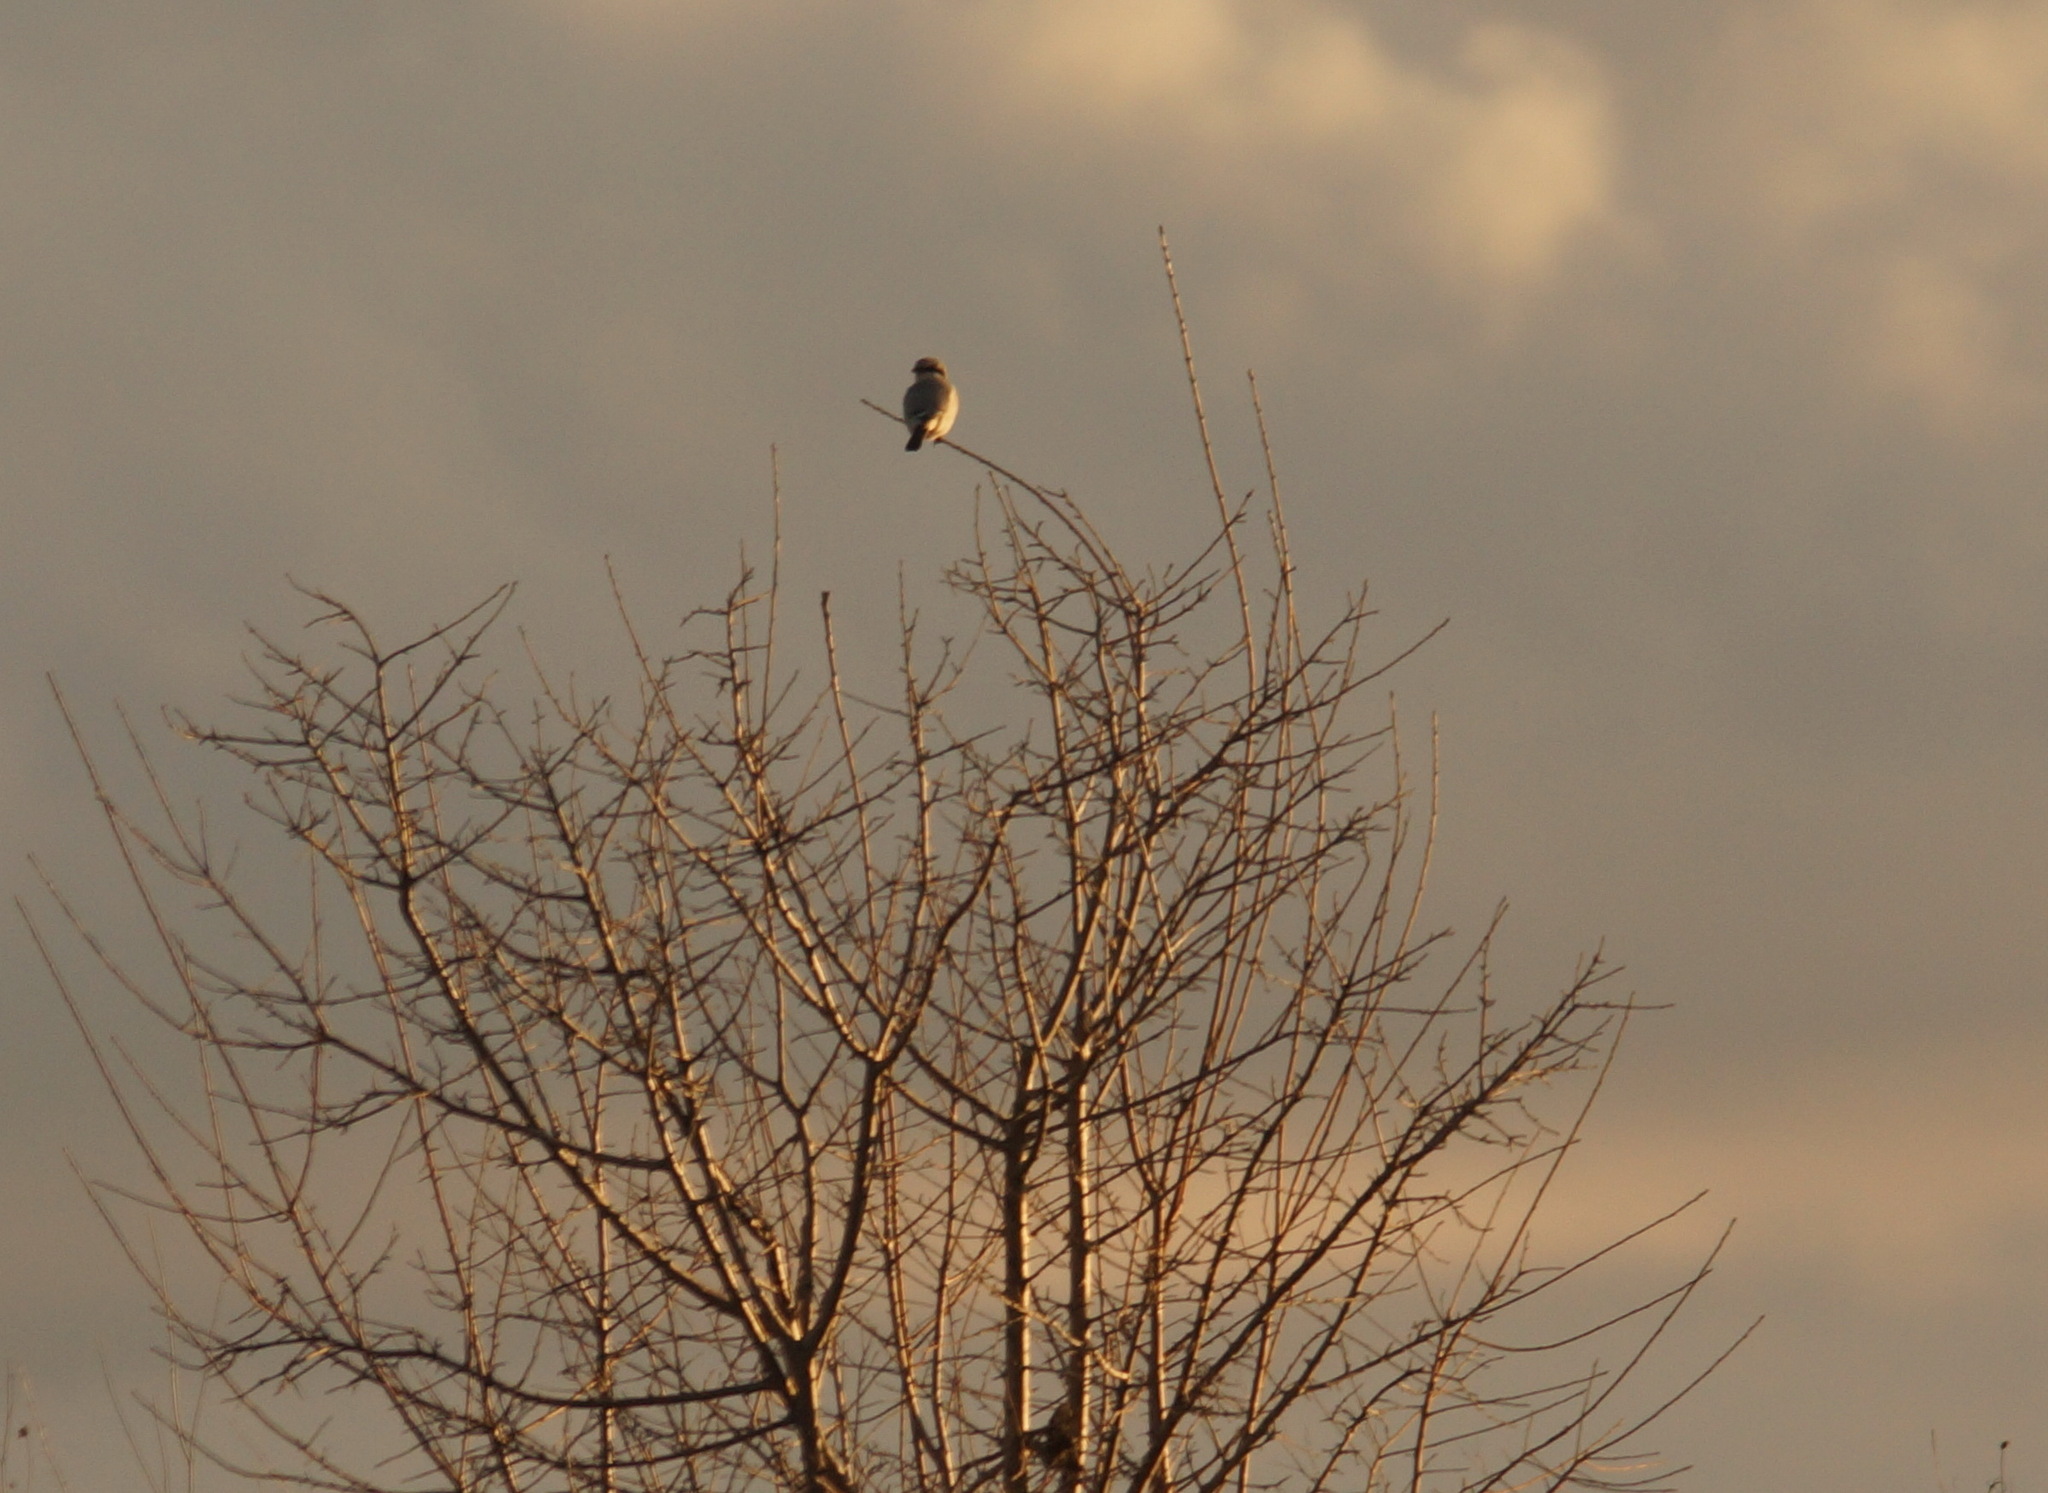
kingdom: Animalia
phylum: Chordata
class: Aves
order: Passeriformes
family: Laniidae
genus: Lanius
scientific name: Lanius excubitor
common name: Great grey shrike
